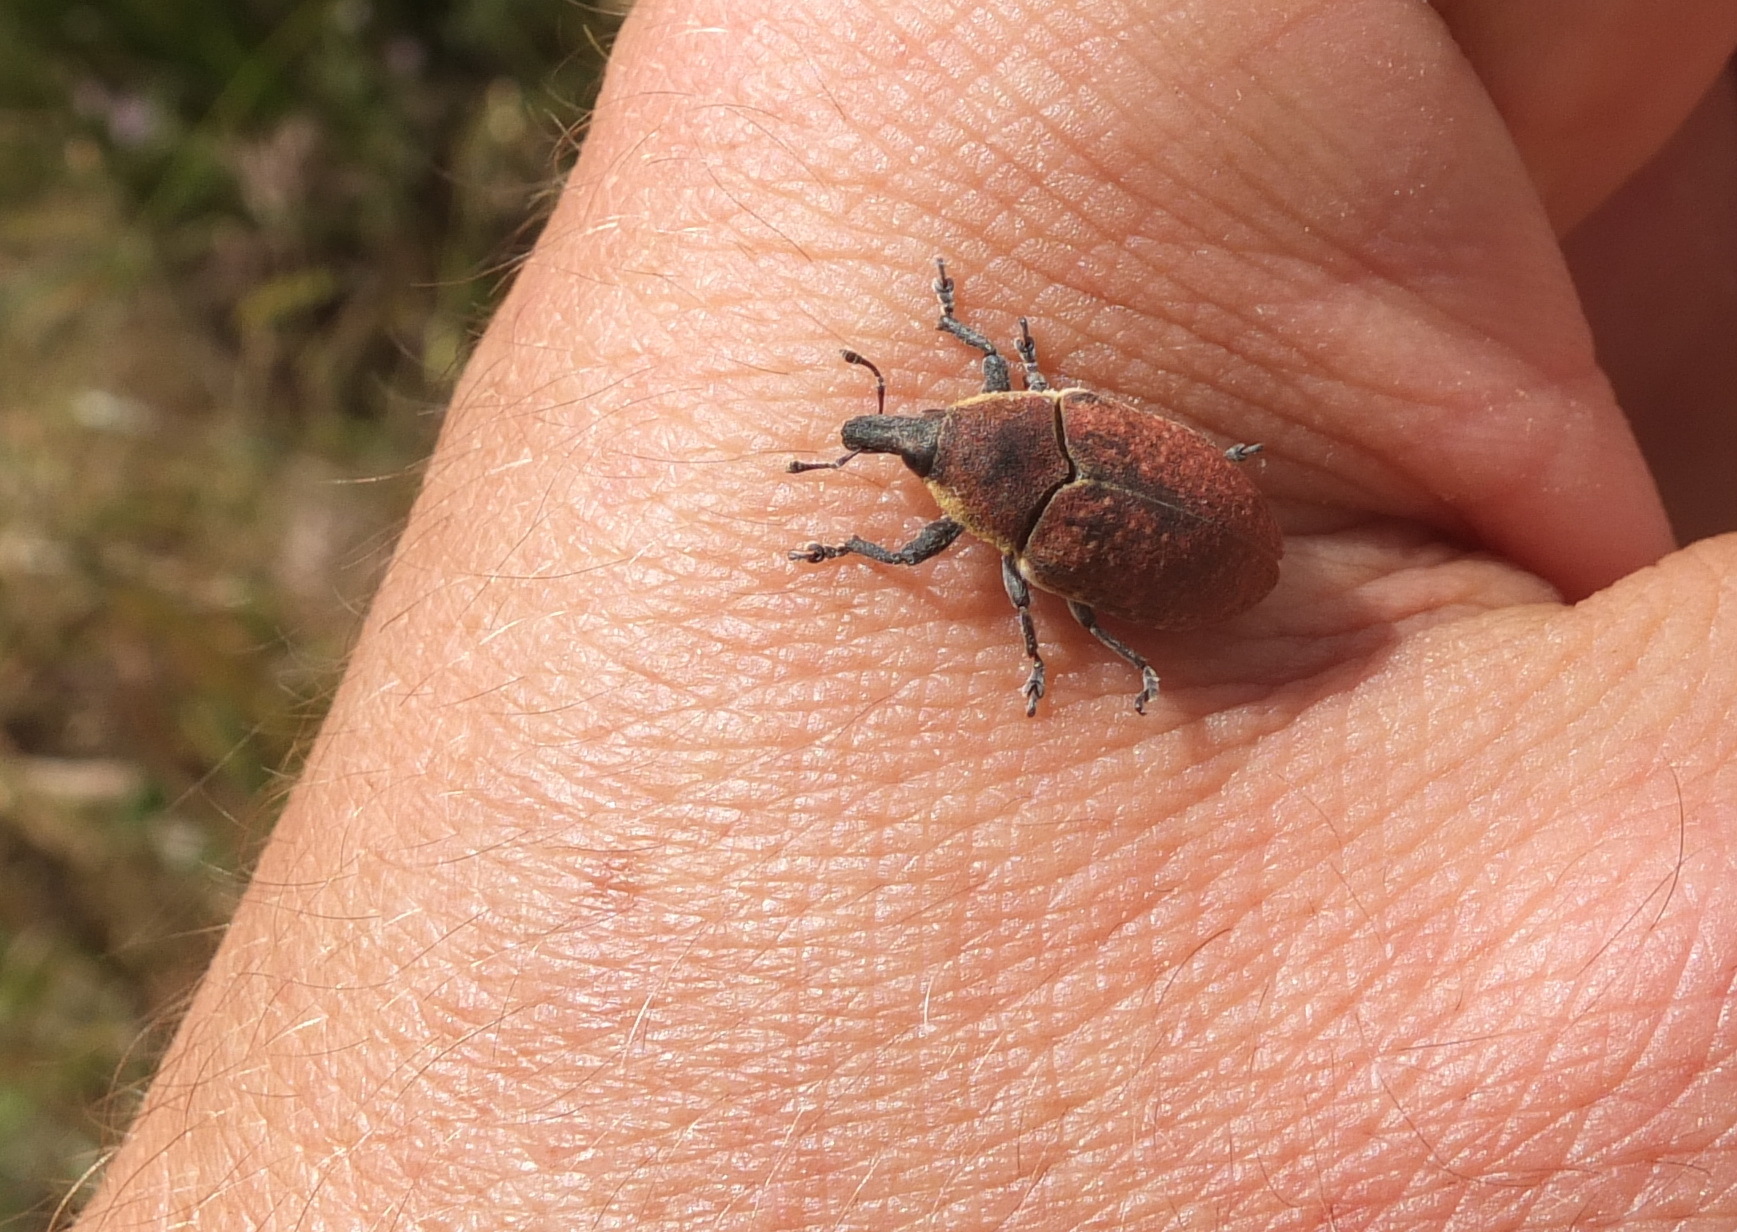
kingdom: Animalia
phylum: Arthropoda
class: Insecta
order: Coleoptera
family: Curculionidae
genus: Larinus
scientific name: Larinus ochreatus
